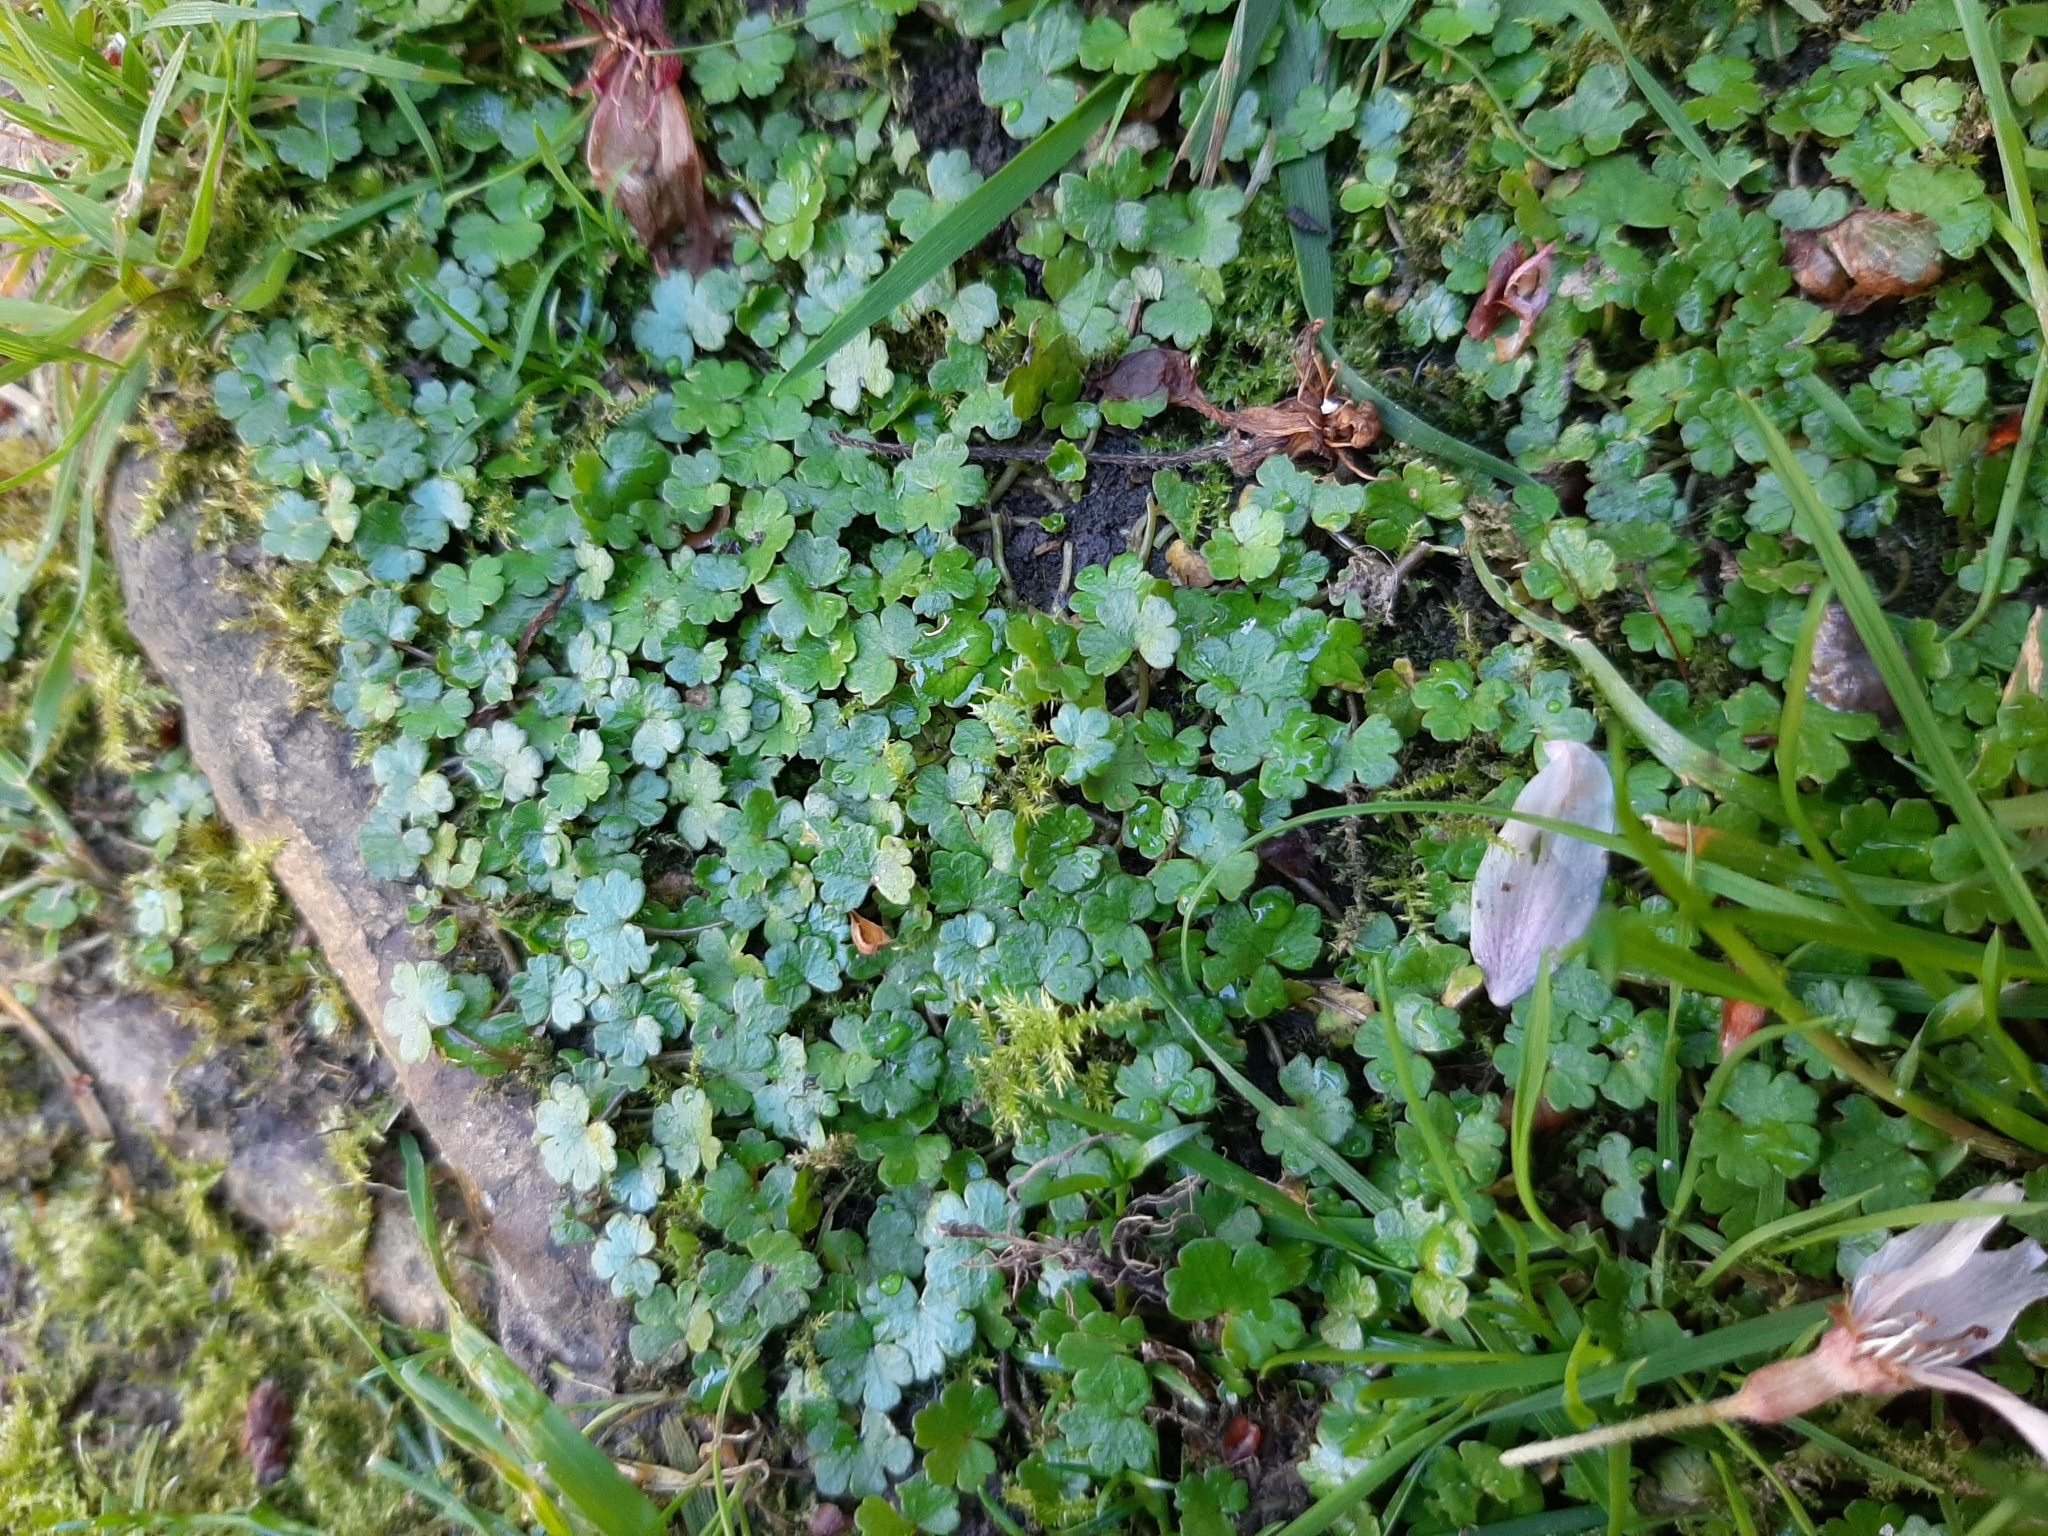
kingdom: Plantae
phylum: Tracheophyta
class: Magnoliopsida
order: Apiales
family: Araliaceae
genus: Hydrocotyle
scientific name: Hydrocotyle microphylla
